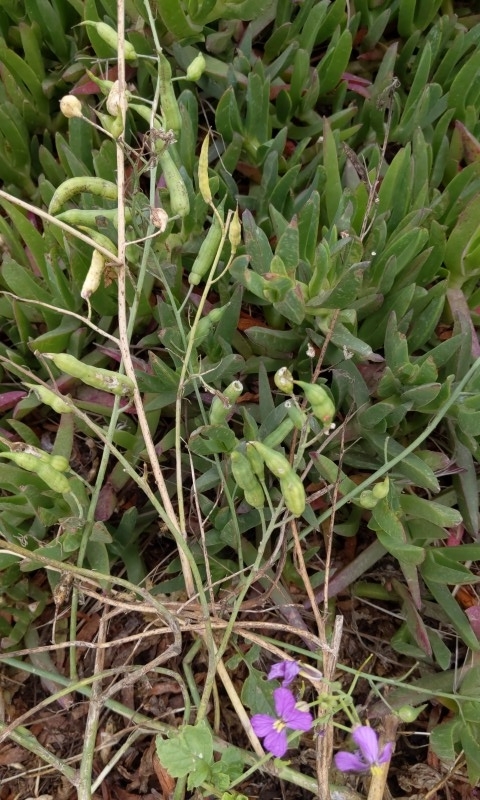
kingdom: Plantae
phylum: Tracheophyta
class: Magnoliopsida
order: Brassicales
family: Brassicaceae
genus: Raphanus
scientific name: Raphanus sativus
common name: Cultivated radish
